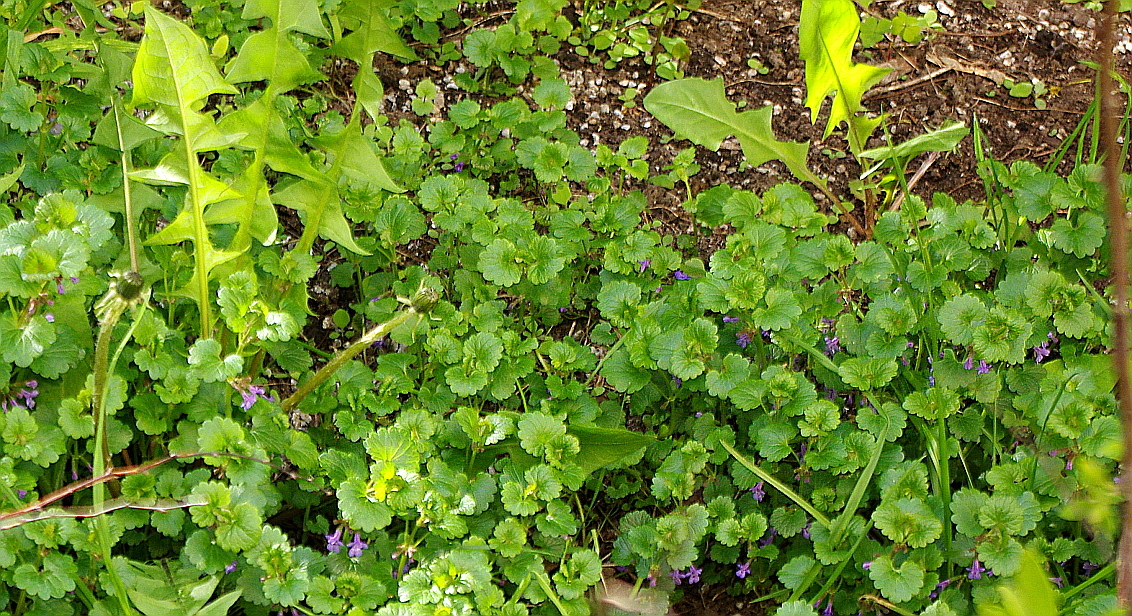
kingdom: Plantae
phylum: Tracheophyta
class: Magnoliopsida
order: Lamiales
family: Lamiaceae
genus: Glechoma
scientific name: Glechoma hederacea
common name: Ground ivy
